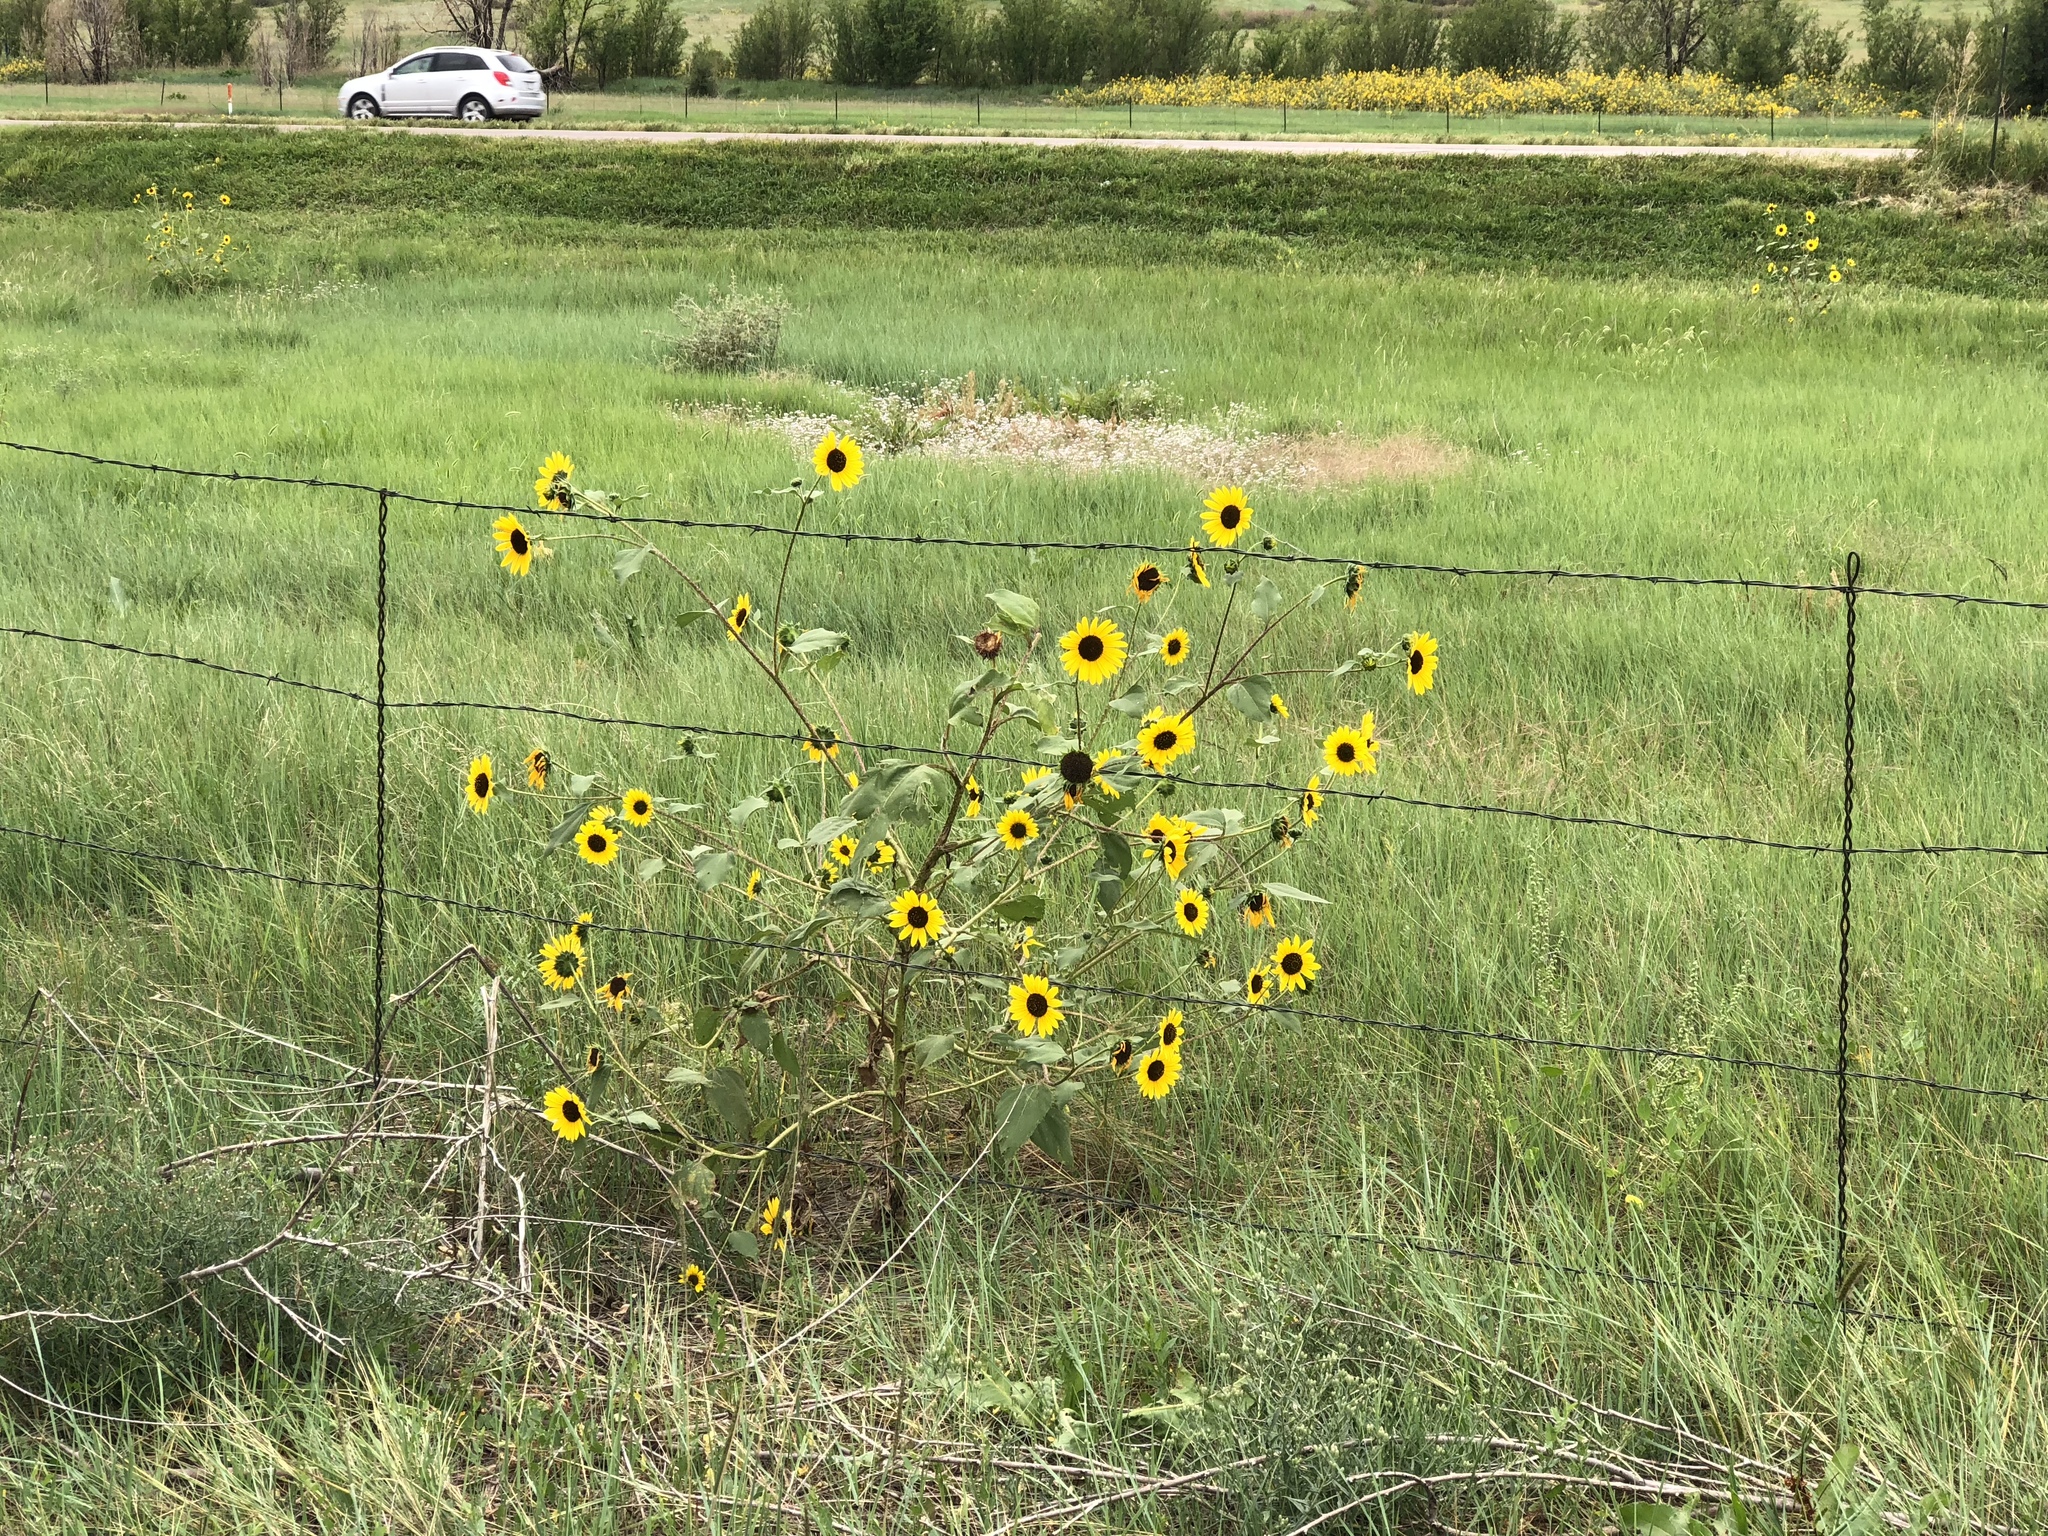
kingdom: Plantae
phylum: Tracheophyta
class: Magnoliopsida
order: Asterales
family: Asteraceae
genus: Helianthus
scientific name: Helianthus annuus
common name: Sunflower
